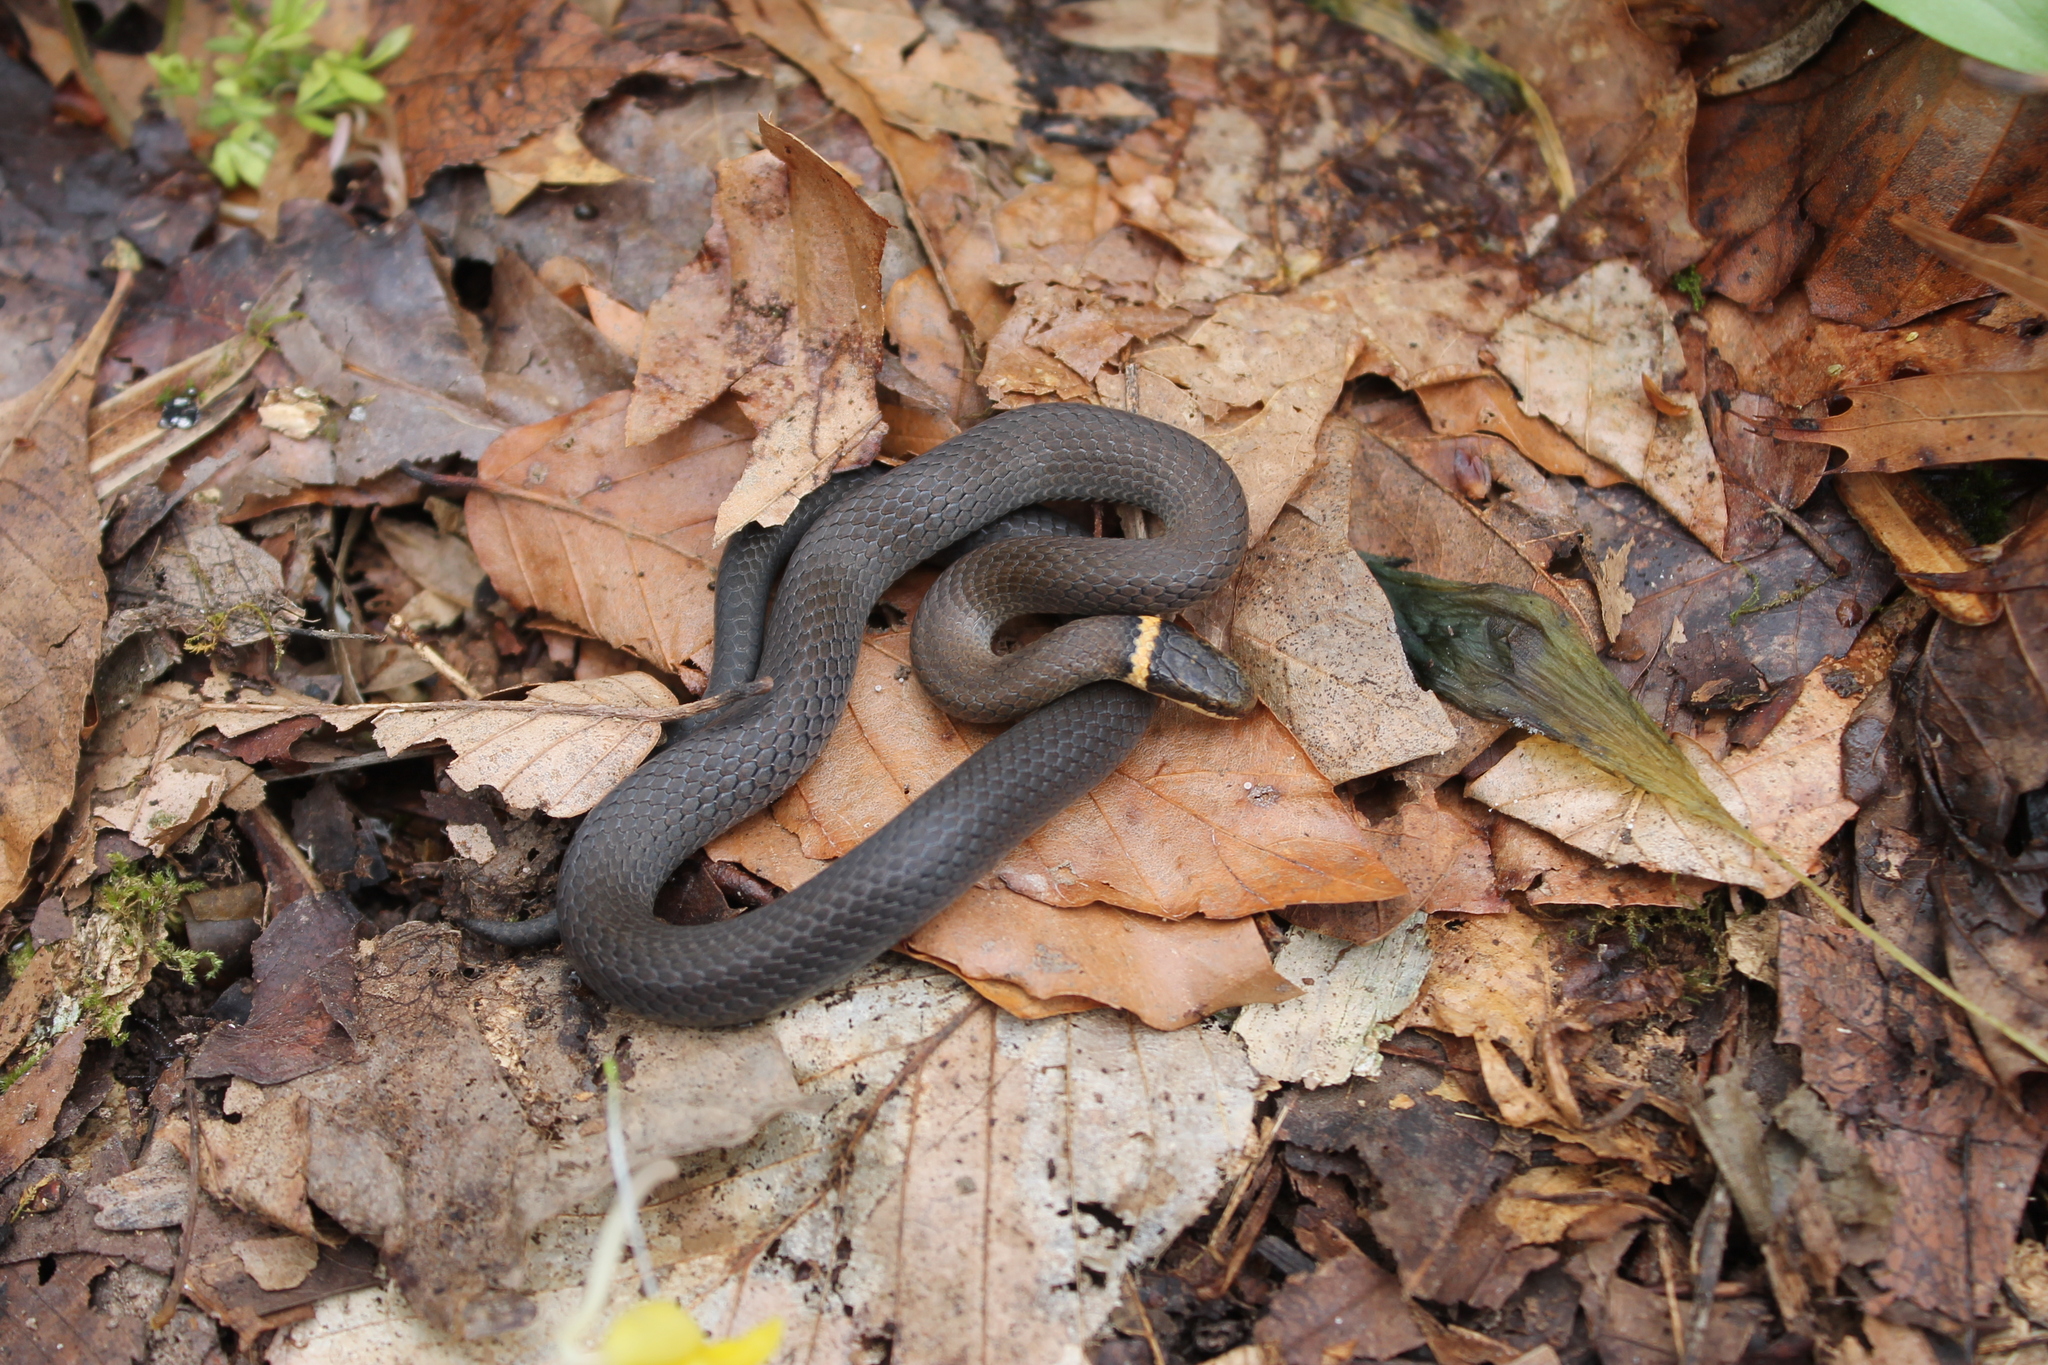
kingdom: Animalia
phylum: Chordata
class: Squamata
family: Colubridae
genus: Diadophis
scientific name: Diadophis punctatus
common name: Ringneck snake
